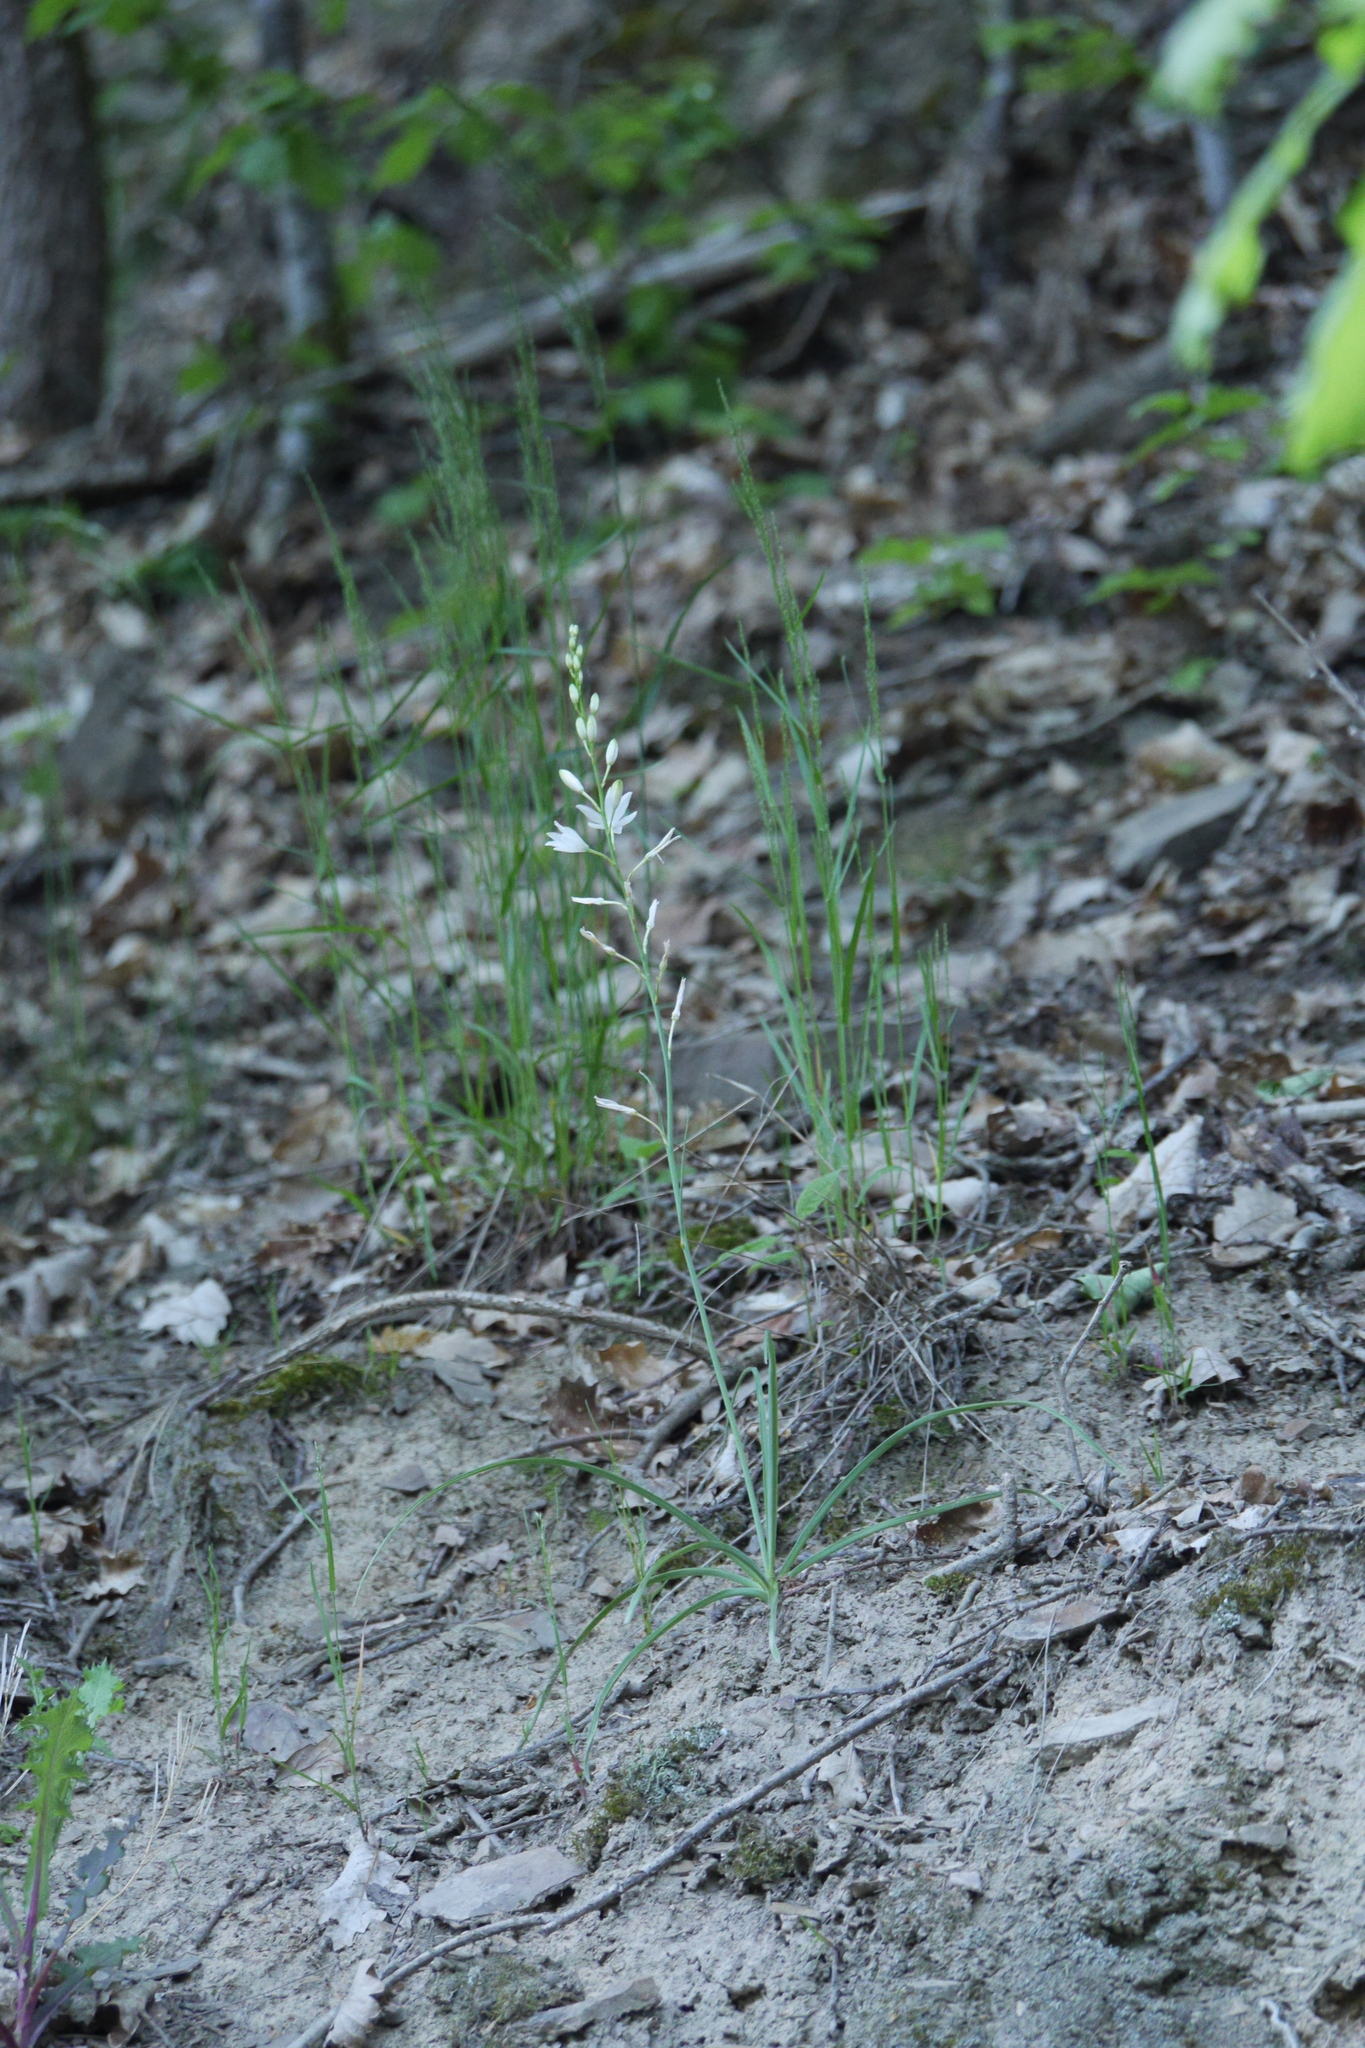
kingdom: Plantae
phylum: Tracheophyta
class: Liliopsida
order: Asparagales
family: Asparagaceae
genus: Anthericum
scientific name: Anthericum liliago
